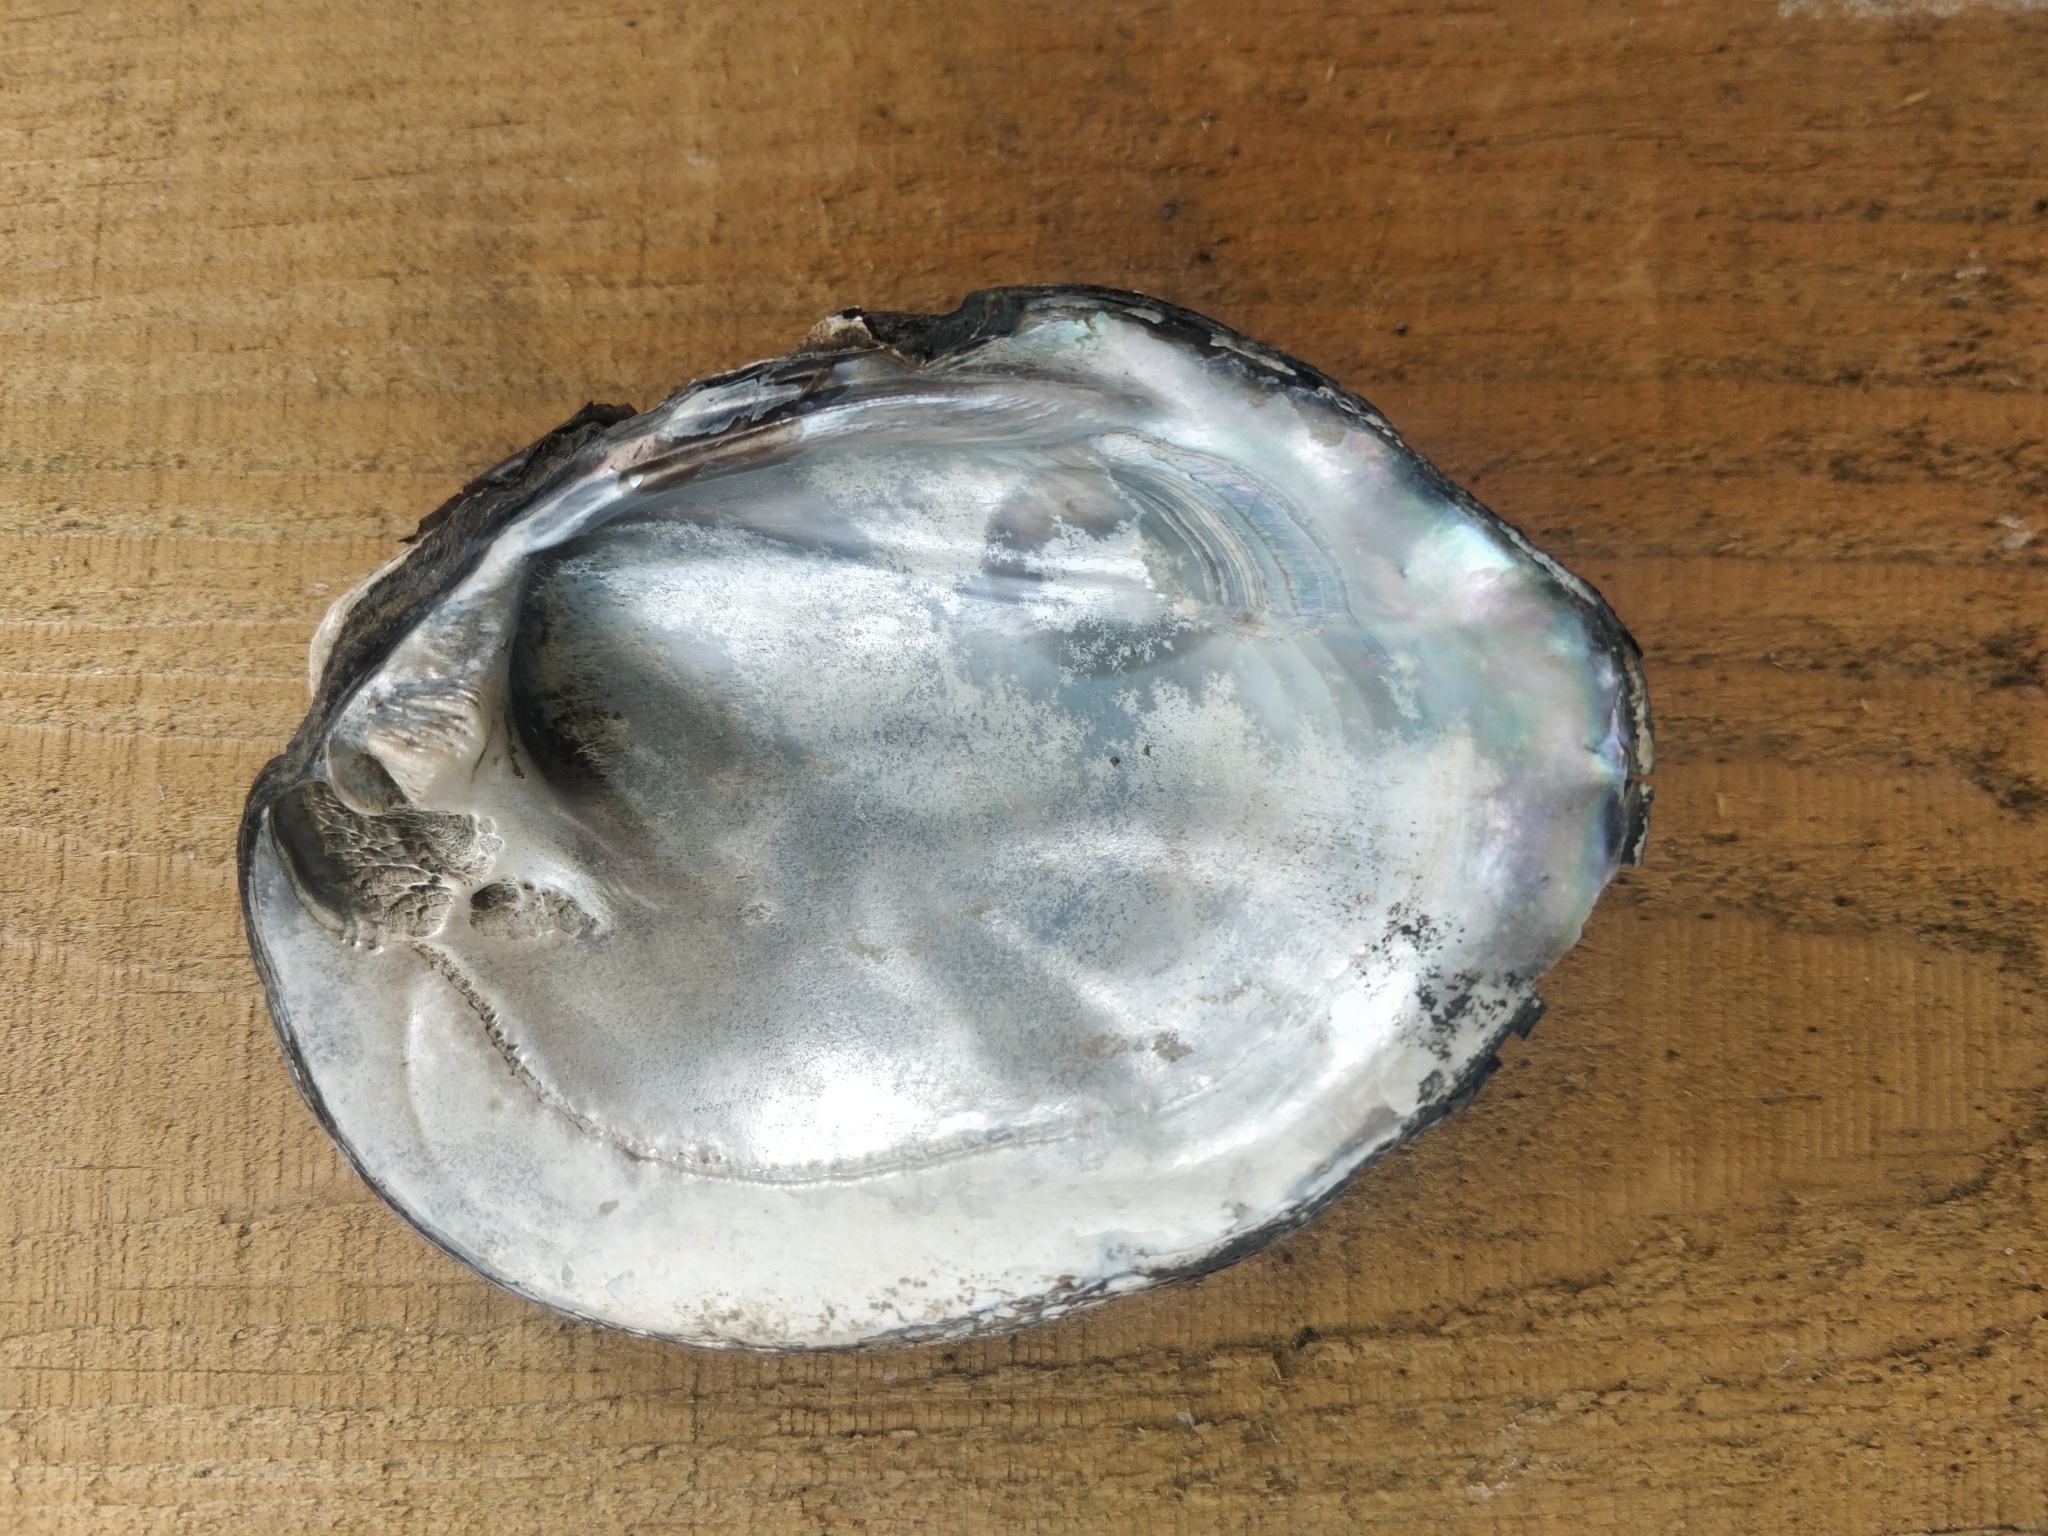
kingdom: Animalia
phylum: Mollusca
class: Bivalvia
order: Unionida
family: Unionidae
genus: Amblema
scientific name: Amblema plicata
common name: Threeridge
